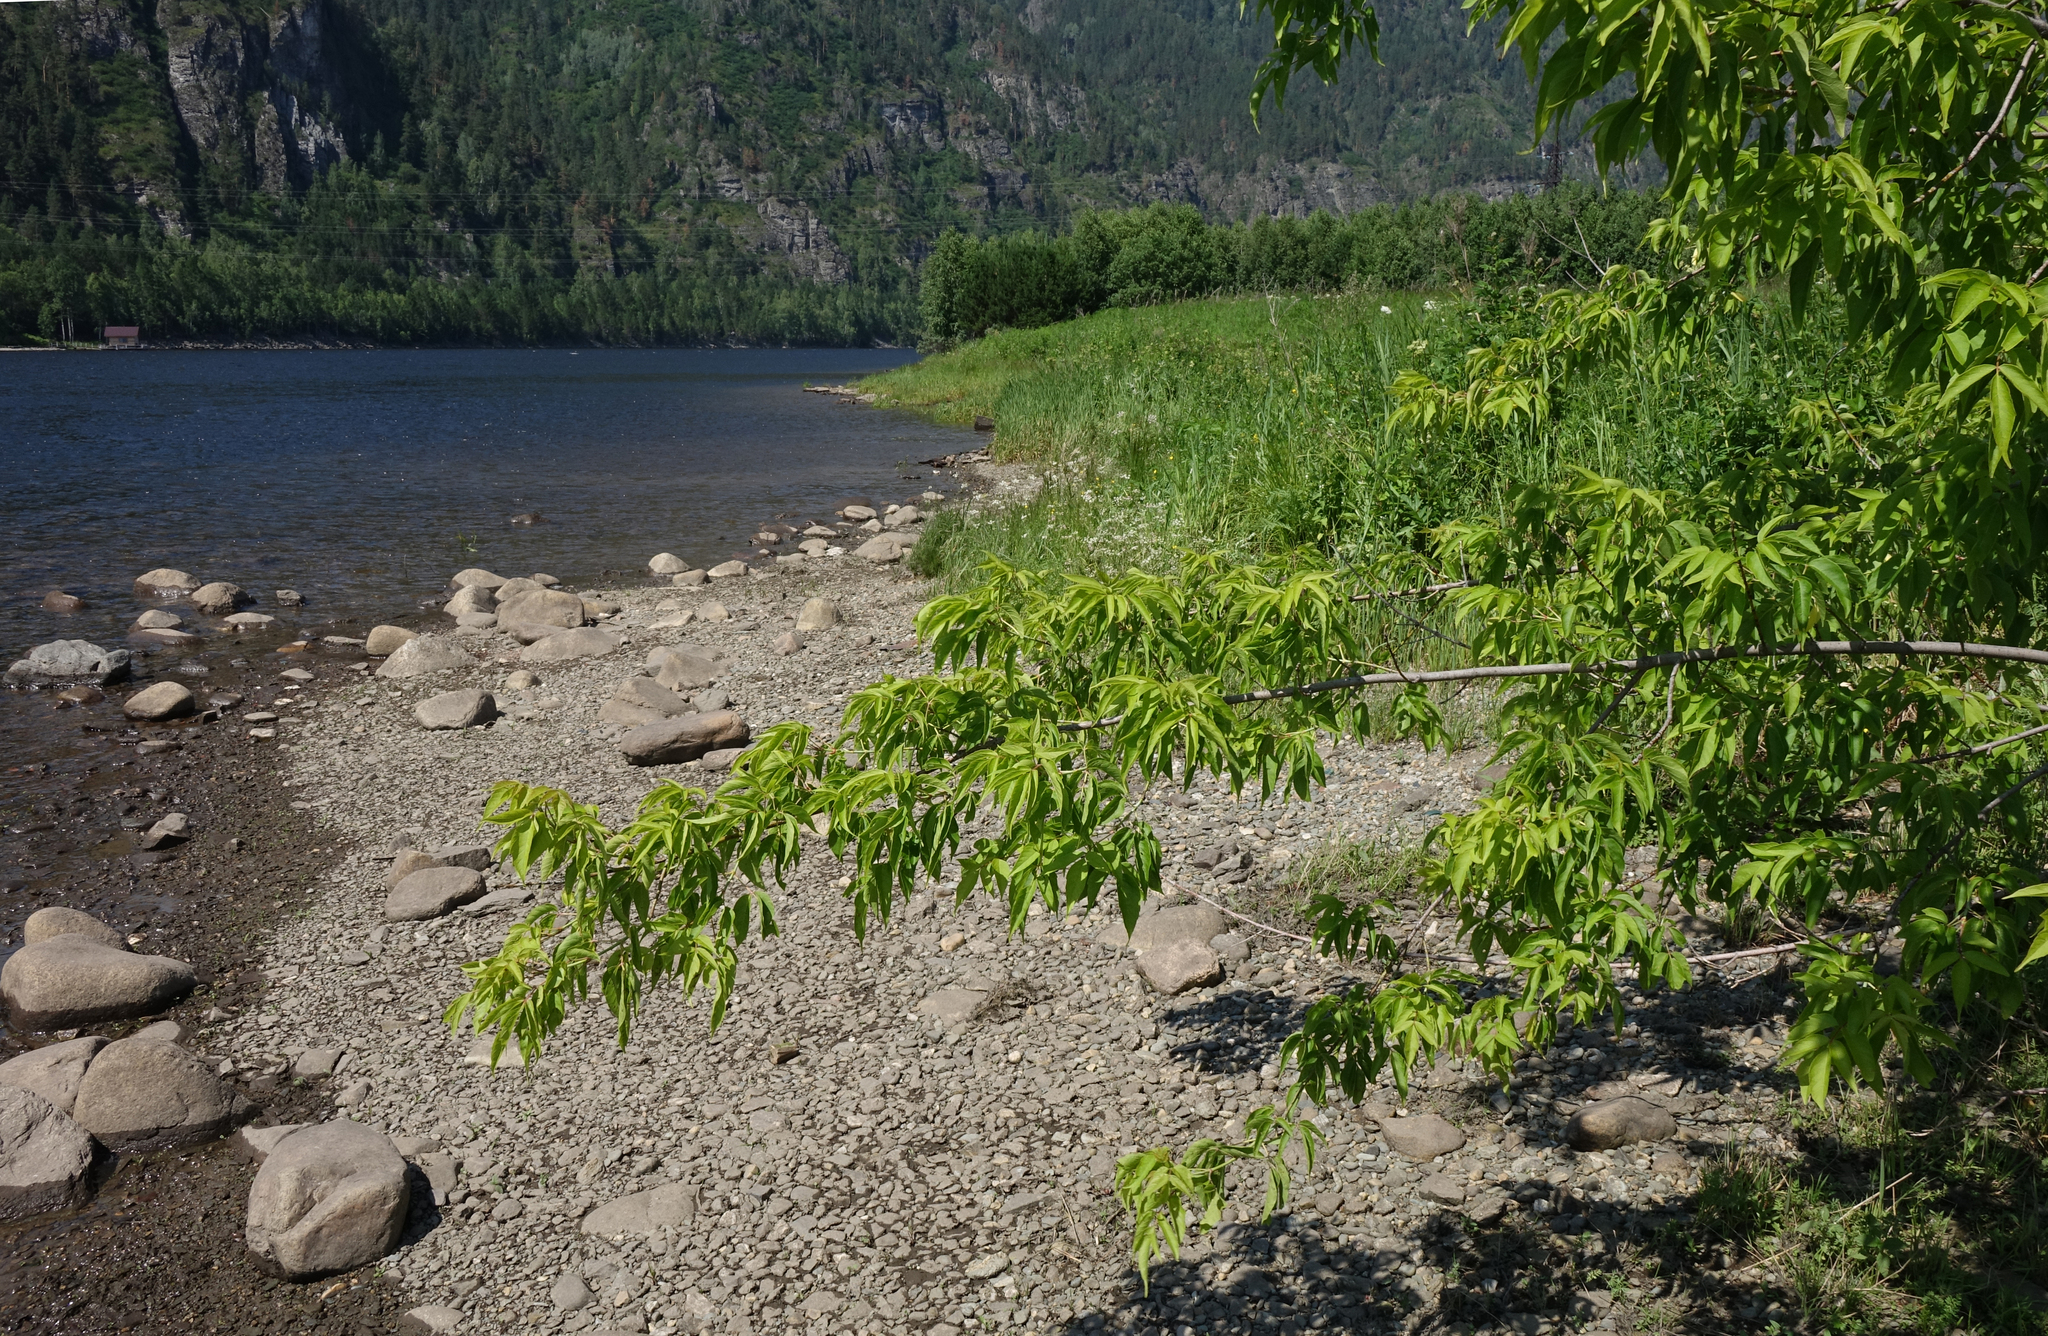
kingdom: Plantae
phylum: Tracheophyta
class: Magnoliopsida
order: Sapindales
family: Sapindaceae
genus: Acer
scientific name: Acer negundo
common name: Ashleaf maple
